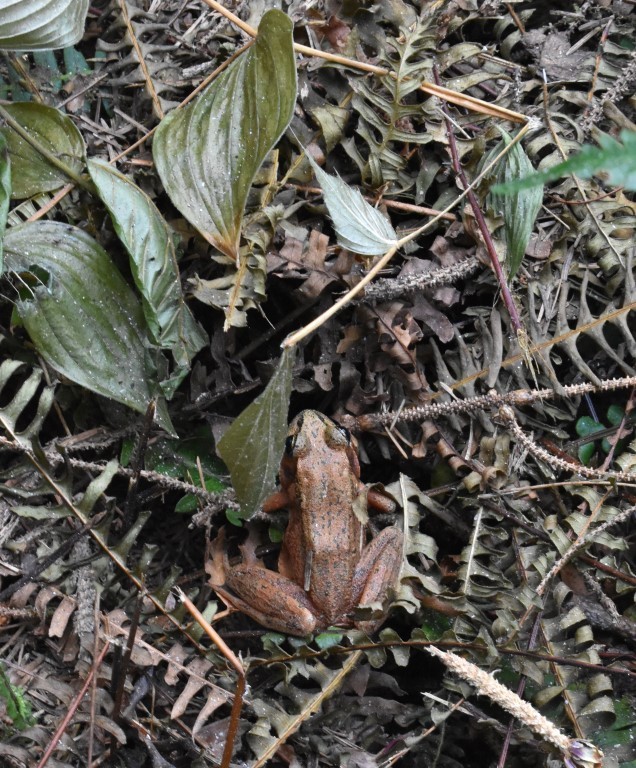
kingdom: Animalia
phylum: Chordata
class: Amphibia
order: Anura
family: Ranidae
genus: Rana
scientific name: Rana aurora
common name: Red-legged frog
